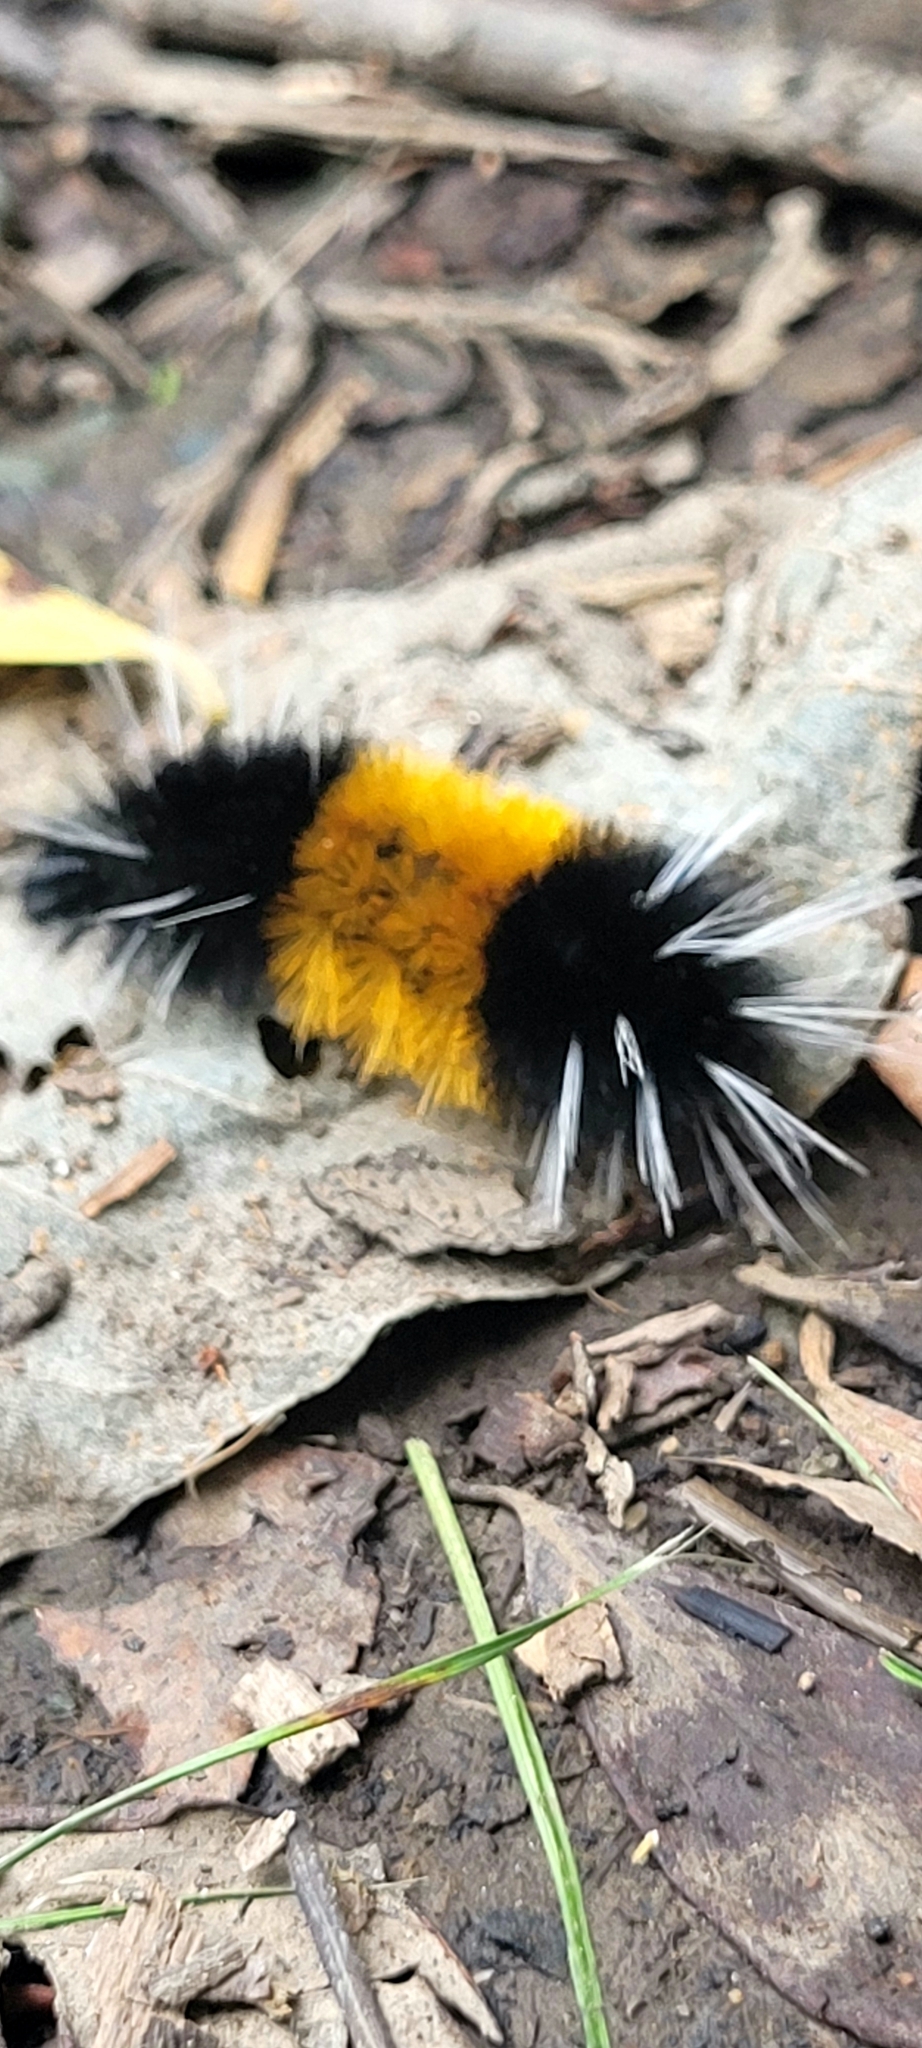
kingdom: Animalia
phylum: Arthropoda
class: Insecta
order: Lepidoptera
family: Erebidae
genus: Lophocampa
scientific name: Lophocampa maculata
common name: Spotted tussock moth
